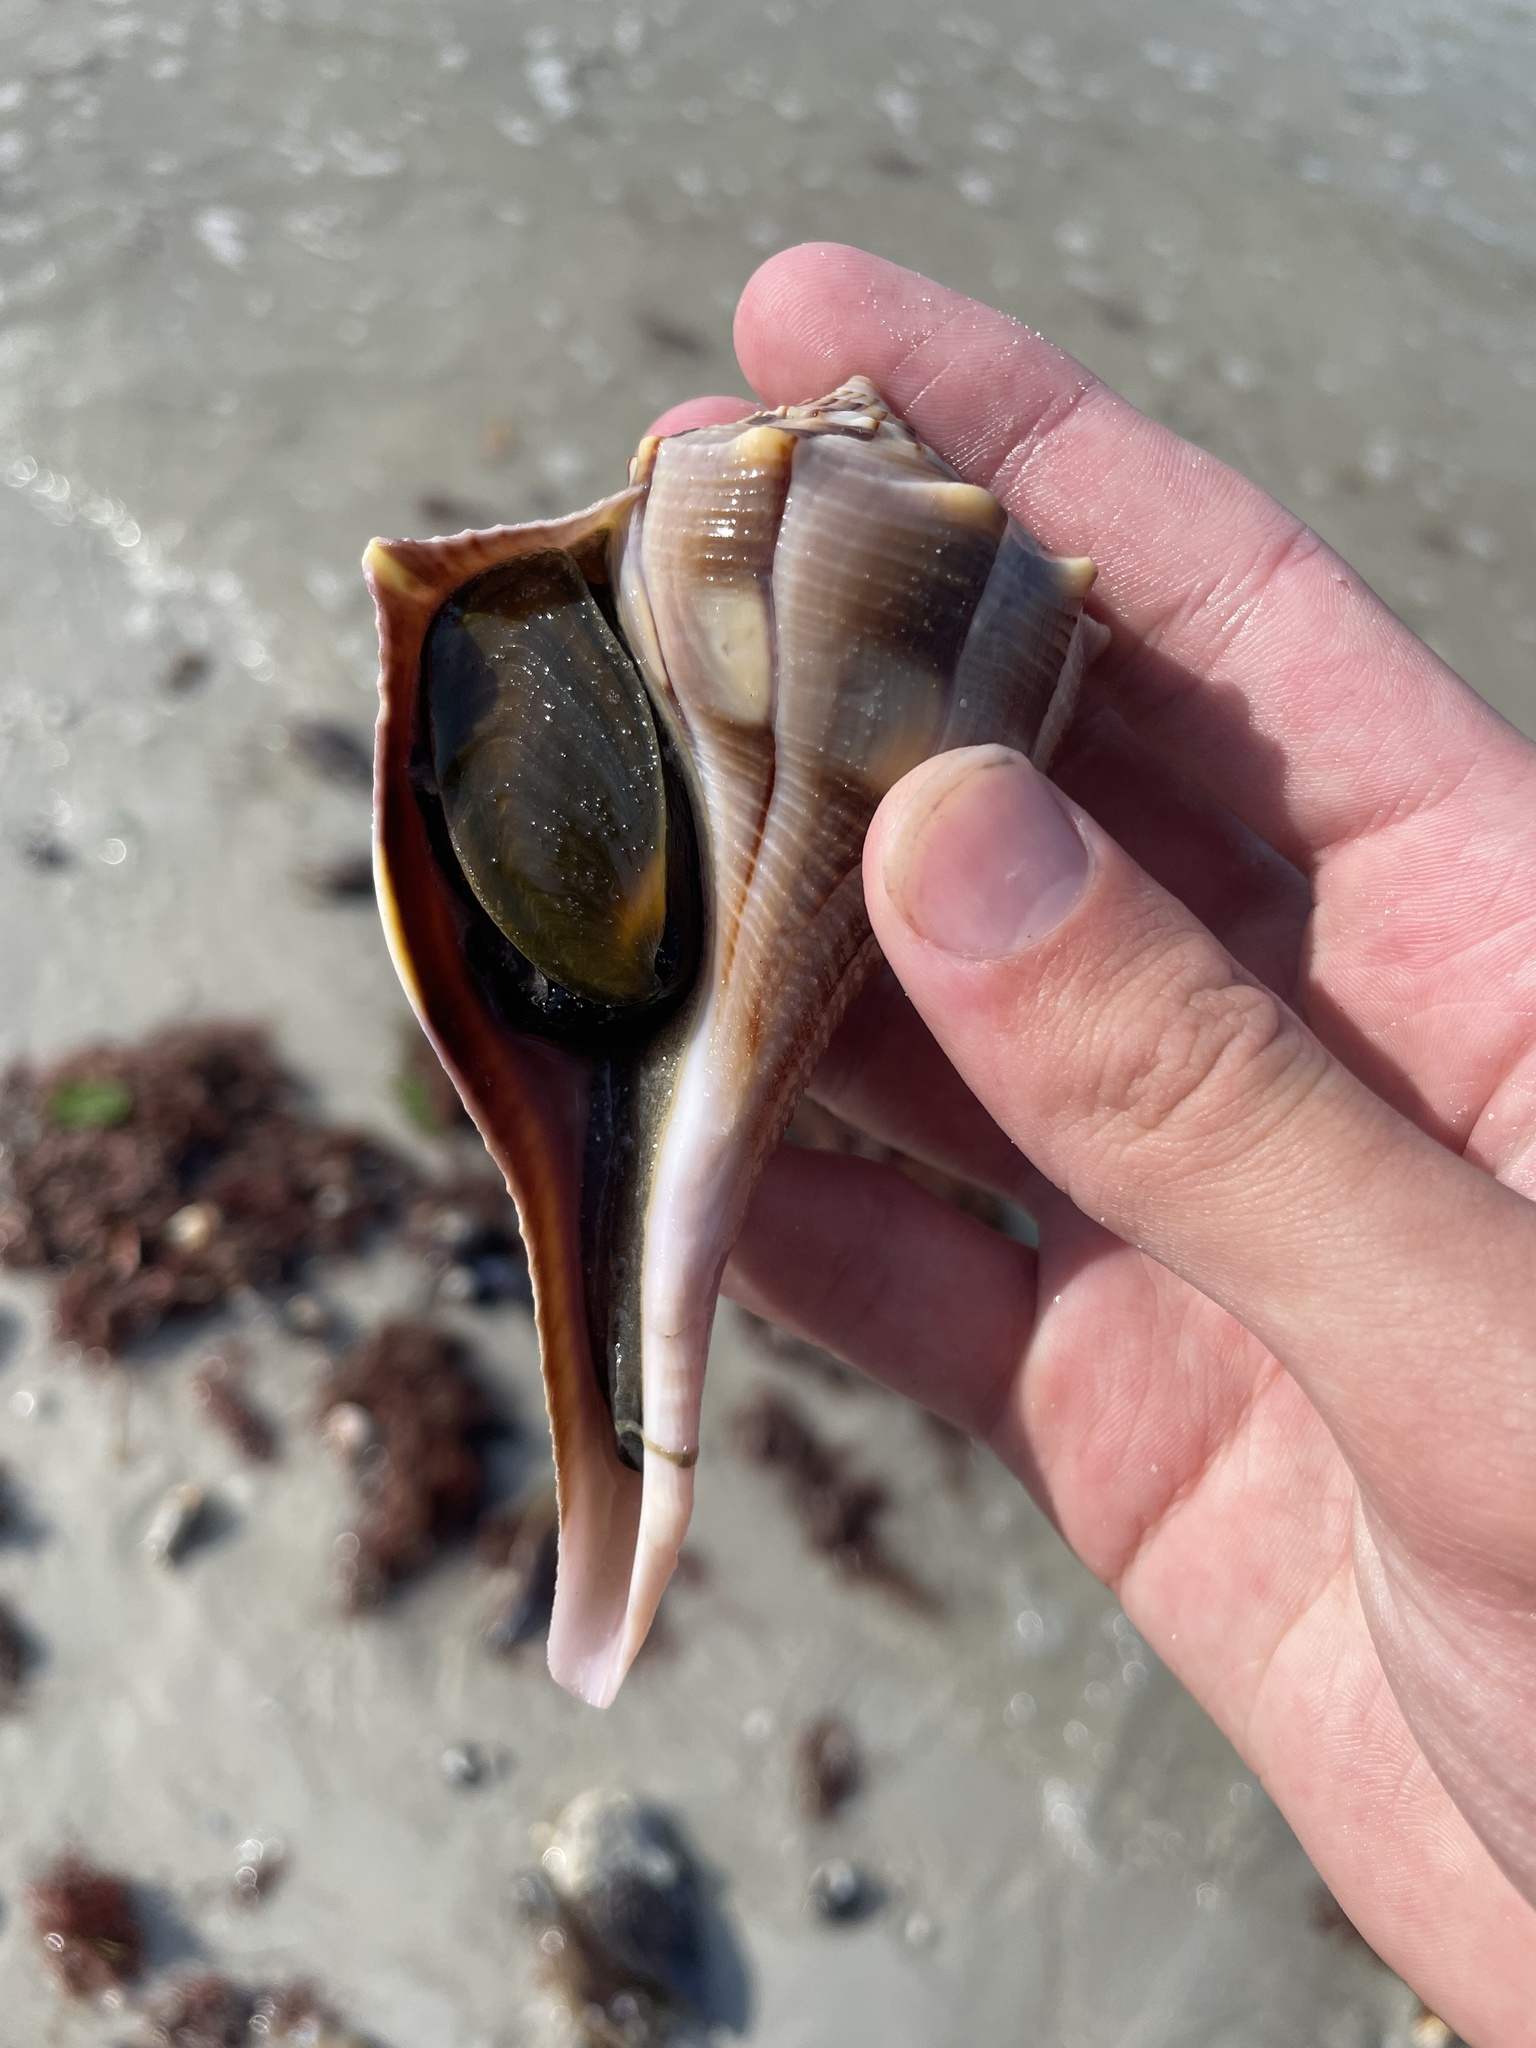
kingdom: Animalia
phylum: Mollusca
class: Gastropoda
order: Neogastropoda
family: Busyconidae
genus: Sinistrofulgur
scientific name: Sinistrofulgur sinistrum
